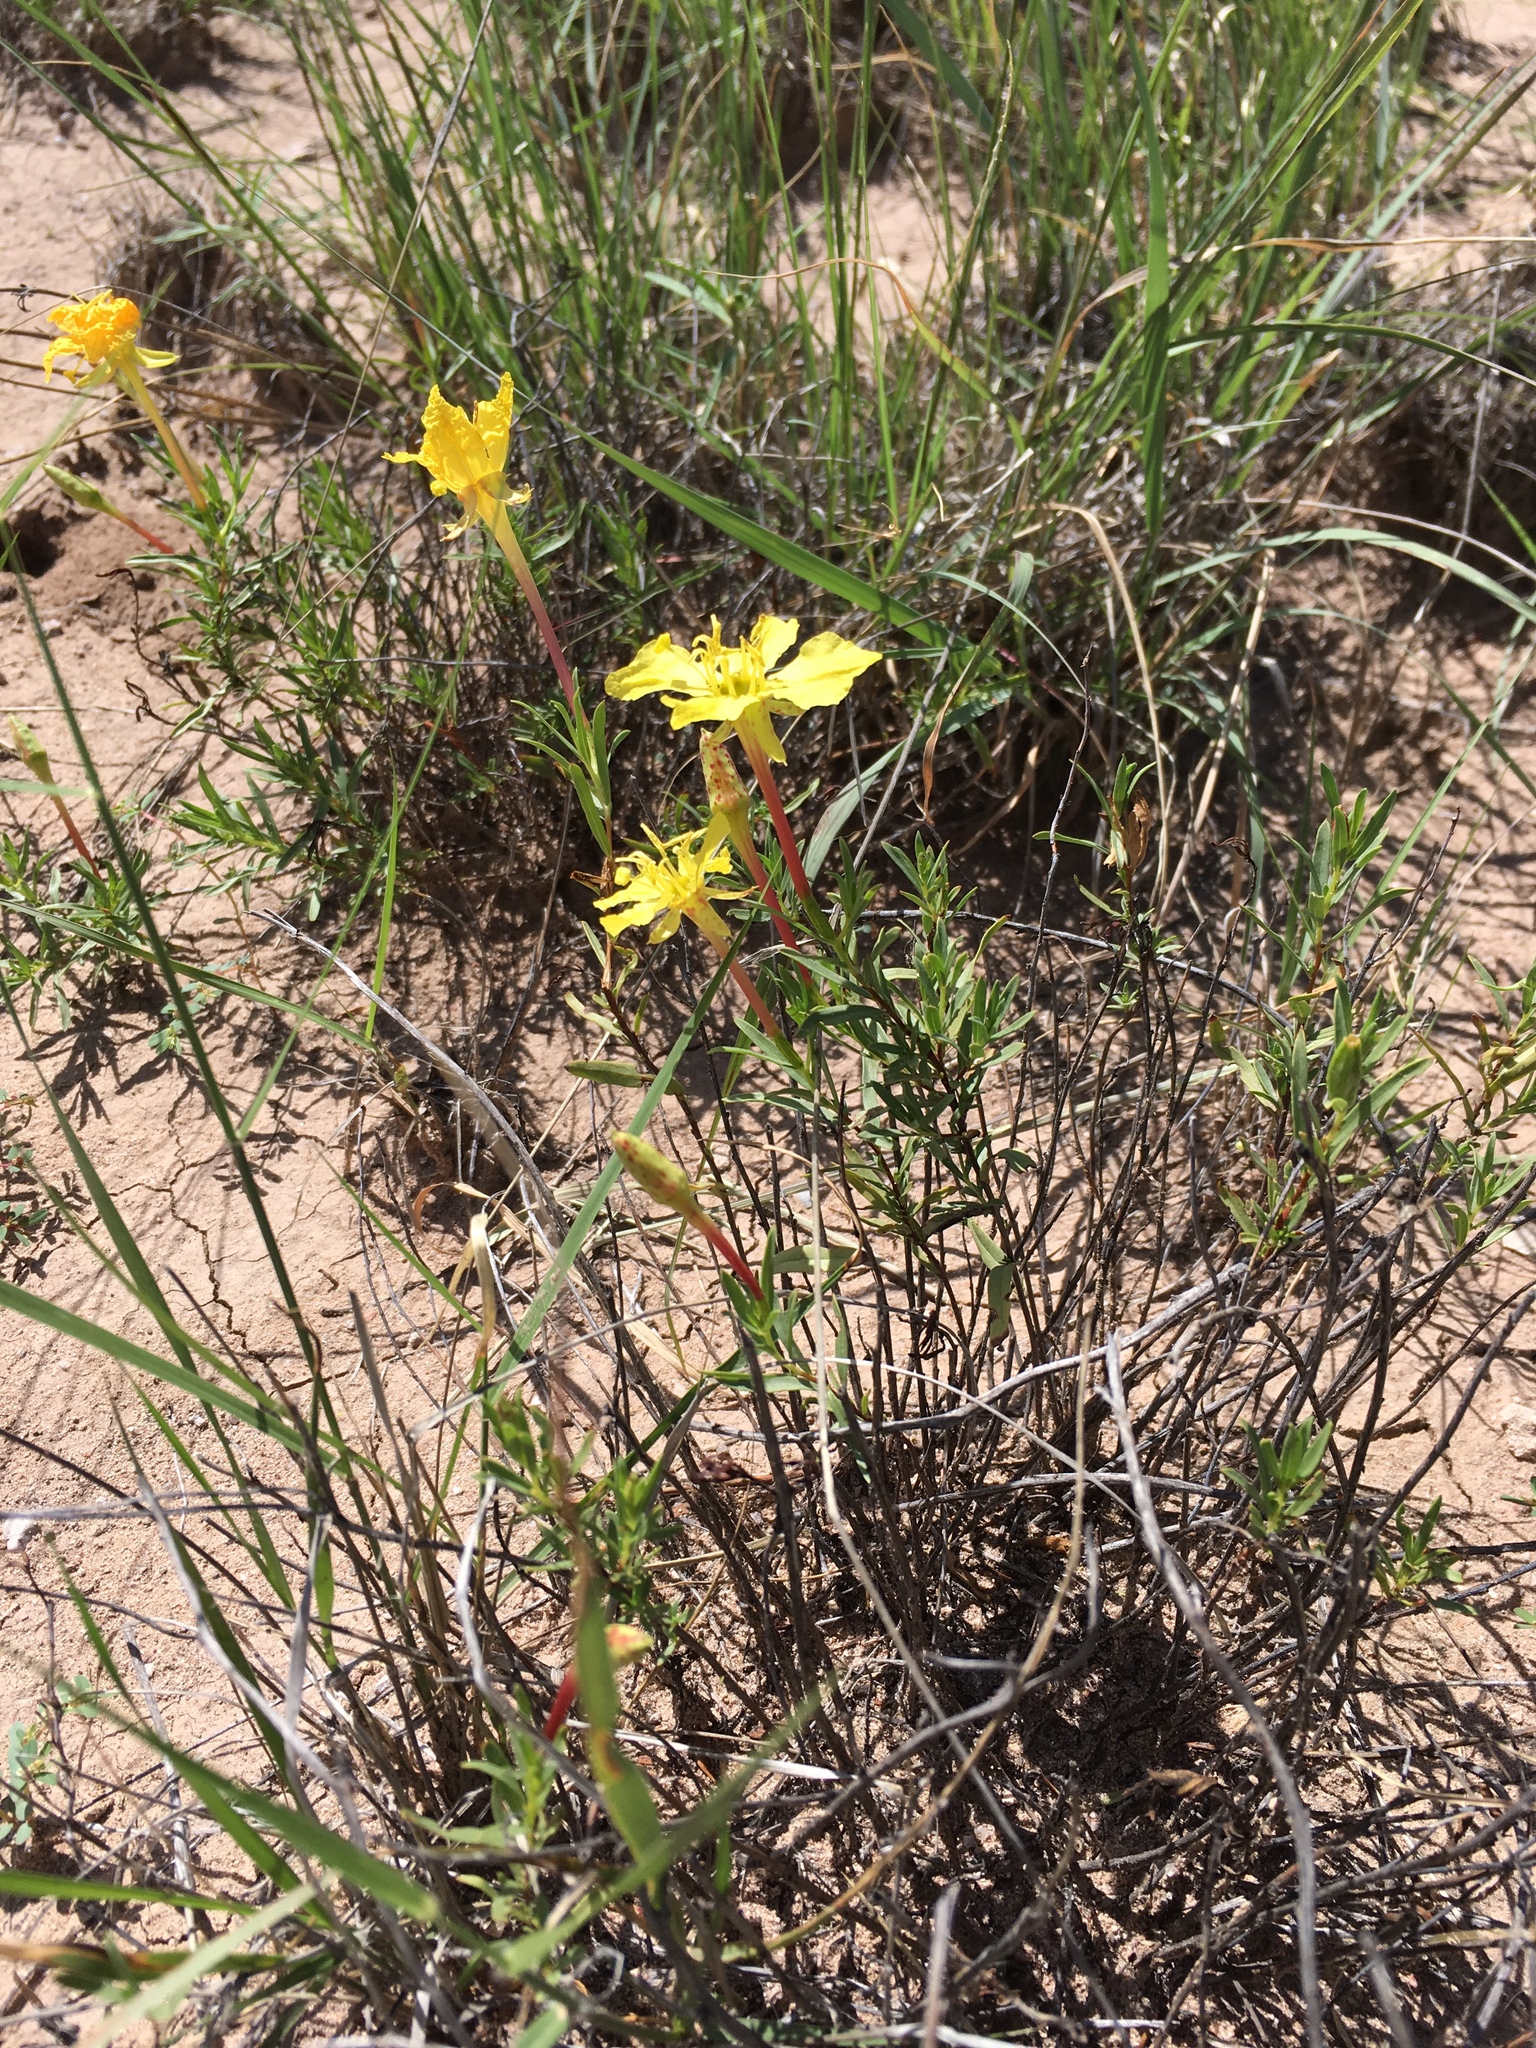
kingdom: Plantae
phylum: Tracheophyta
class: Magnoliopsida
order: Myrtales
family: Onagraceae
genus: Oenothera
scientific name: Oenothera hartwegii
